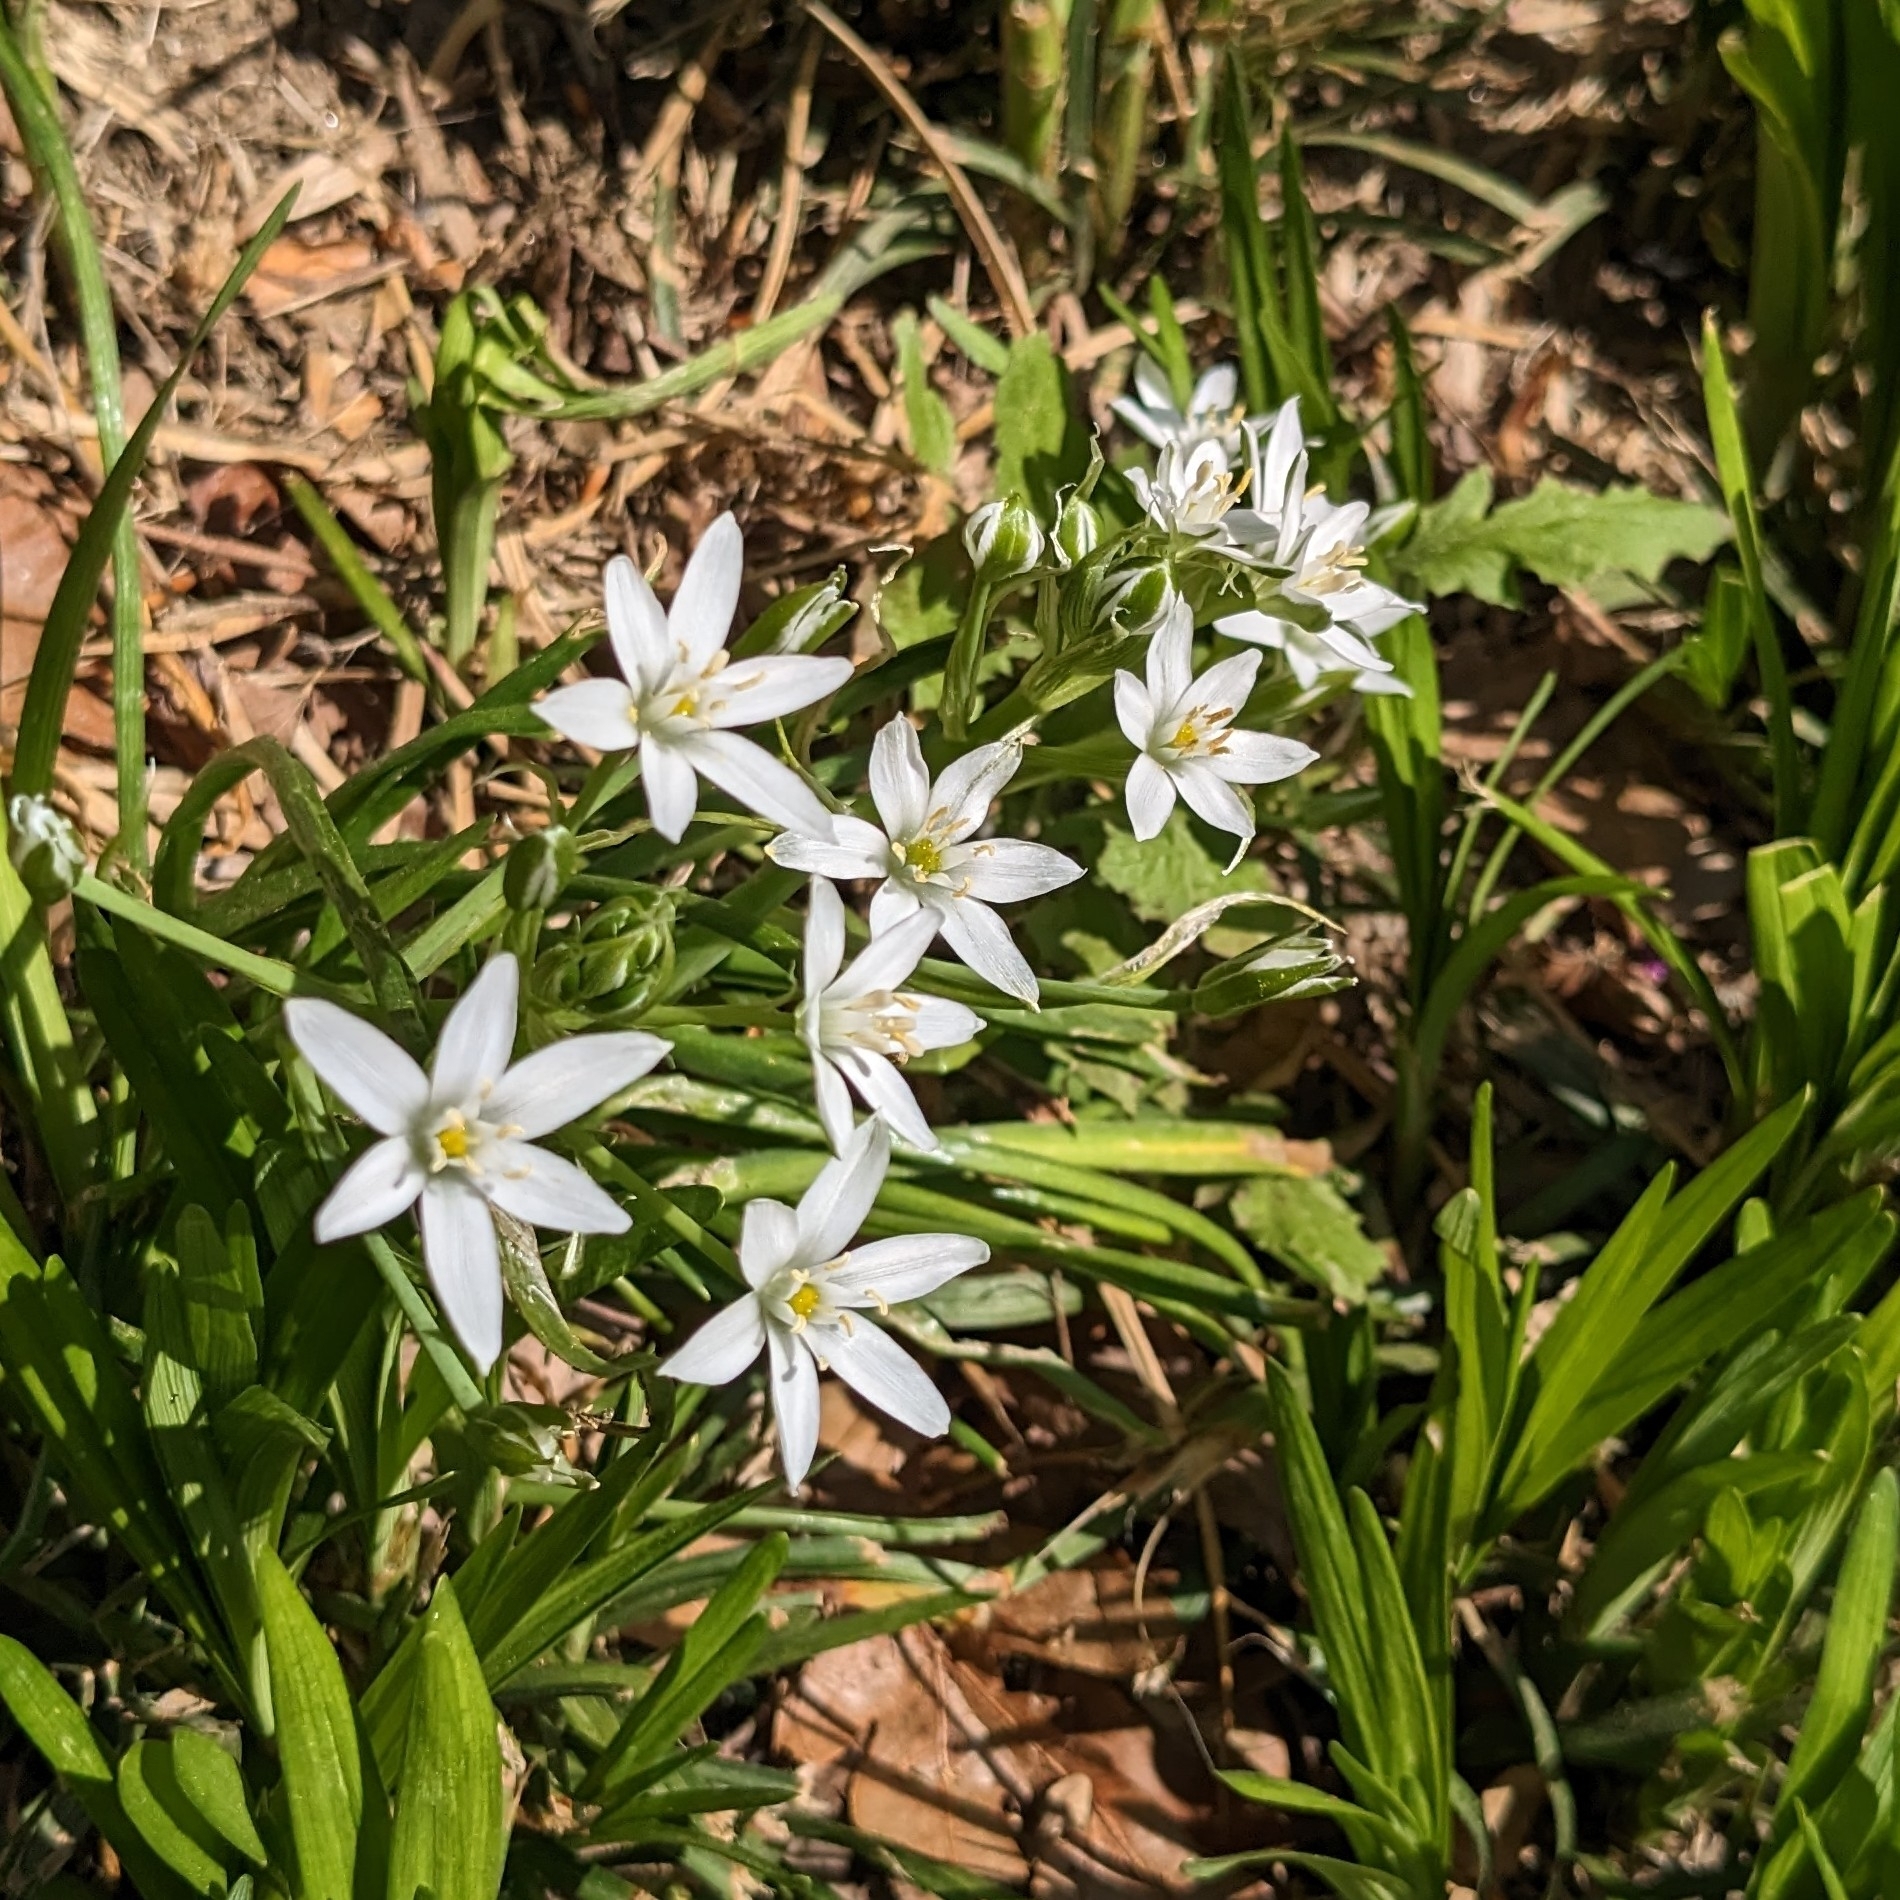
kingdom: Plantae
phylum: Tracheophyta
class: Liliopsida
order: Asparagales
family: Asparagaceae
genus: Ornithogalum
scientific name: Ornithogalum umbellatum
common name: Garden star-of-bethlehem
